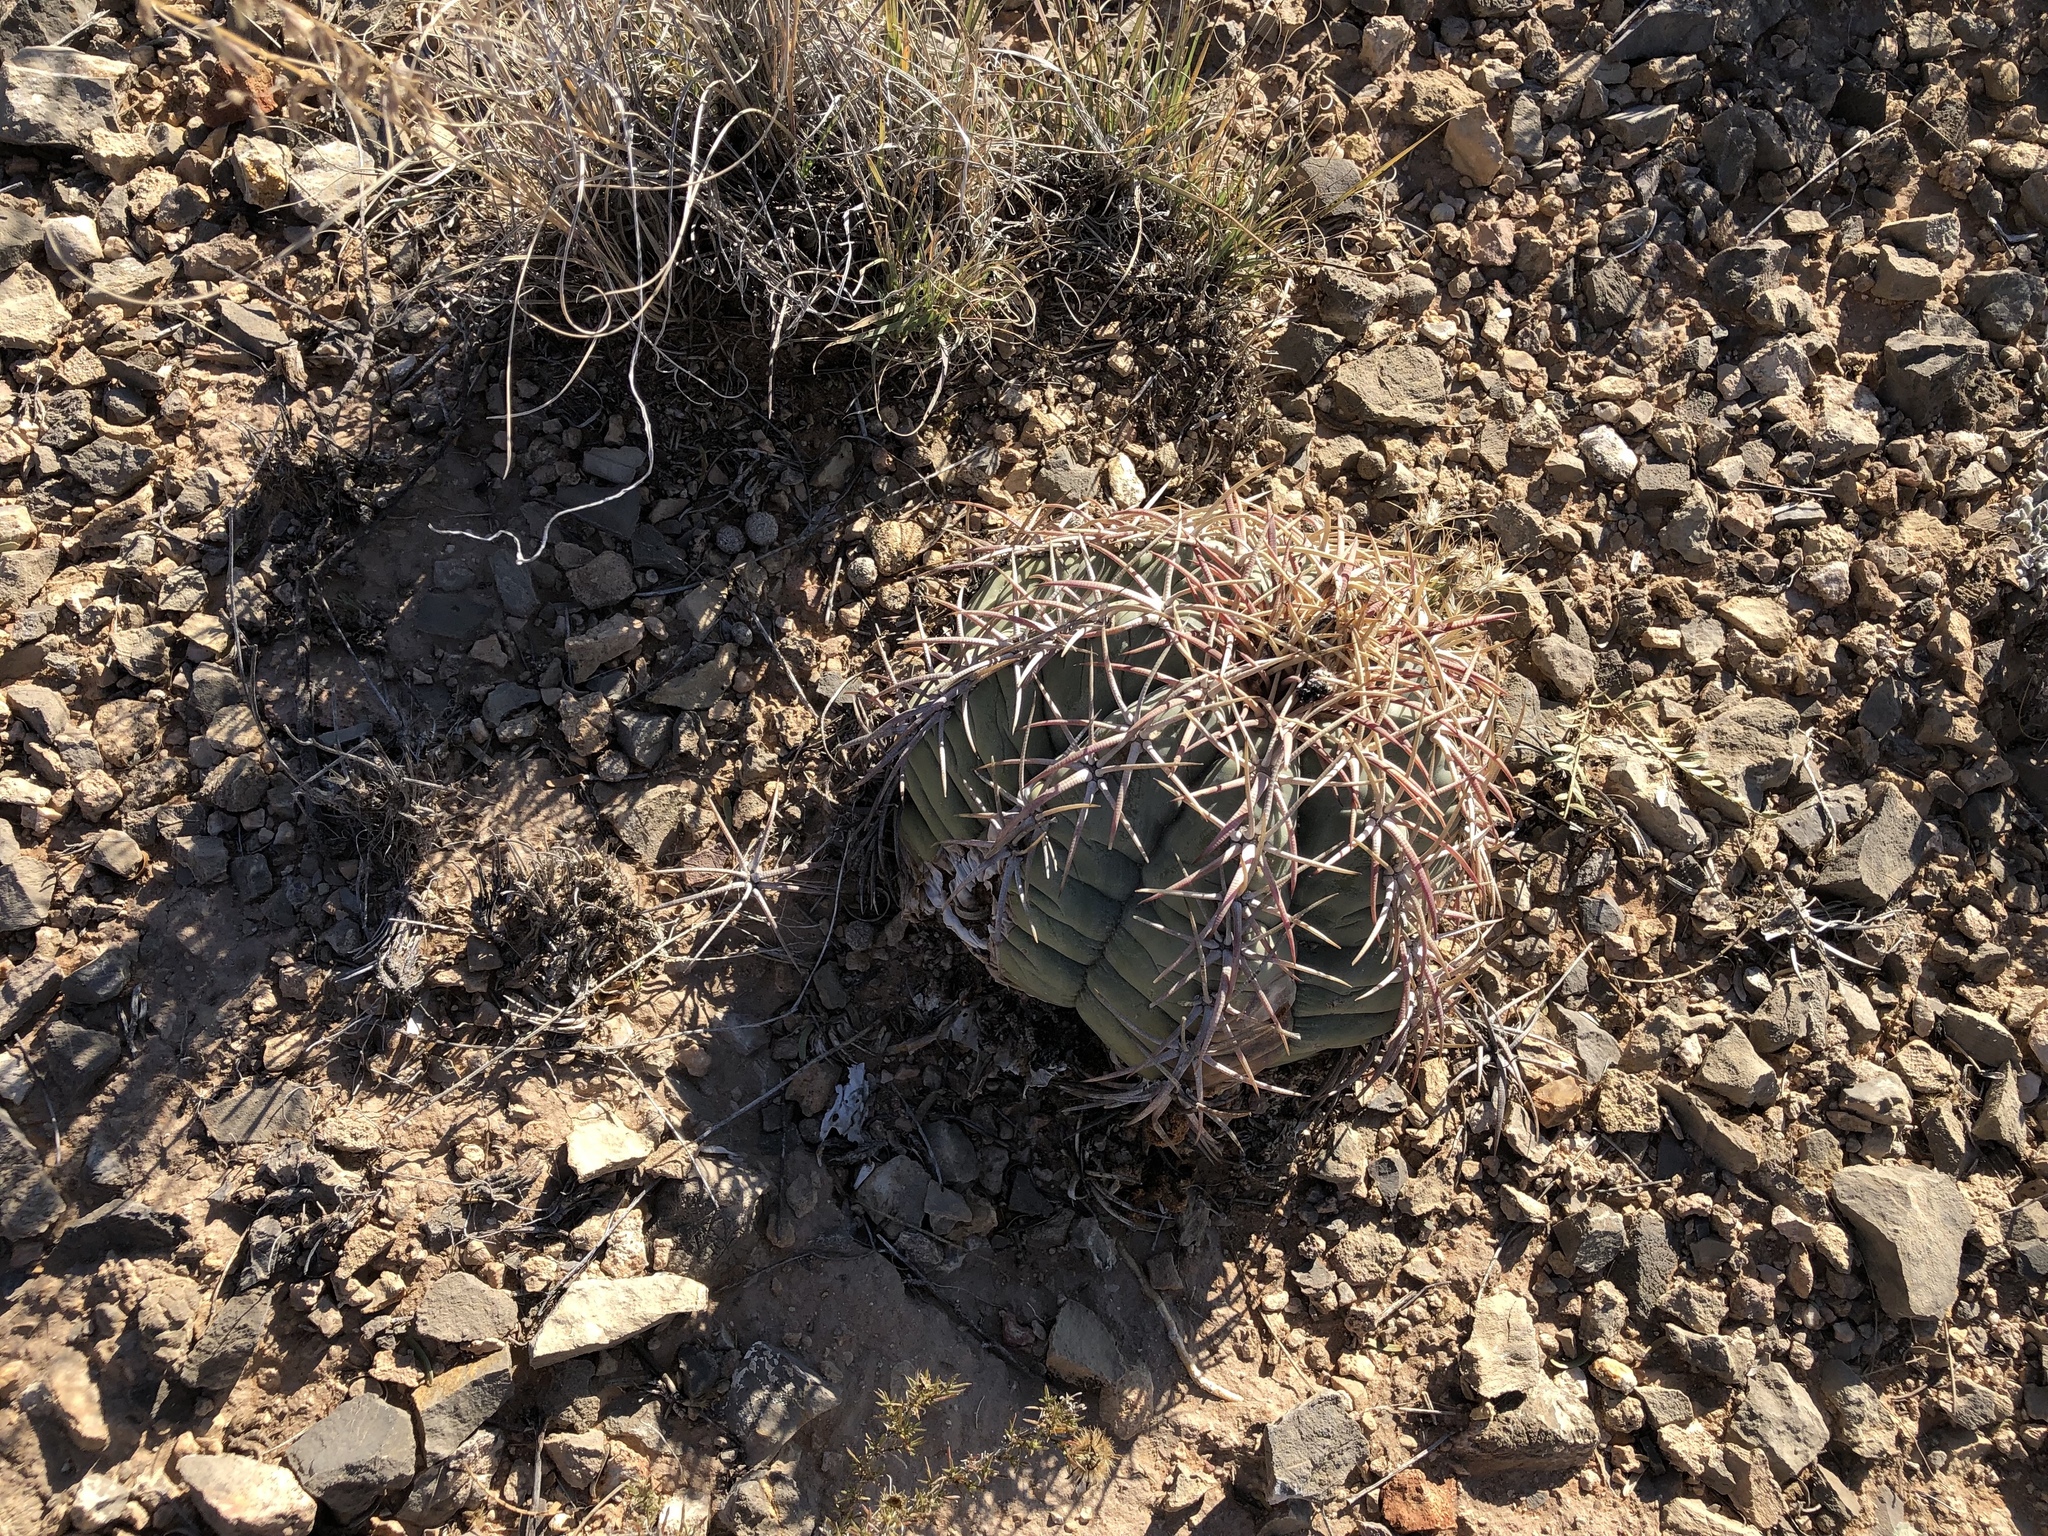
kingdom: Plantae
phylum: Tracheophyta
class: Magnoliopsida
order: Caryophyllales
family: Cactaceae
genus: Echinocactus
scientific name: Echinocactus horizonthalonius
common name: Devilshead
